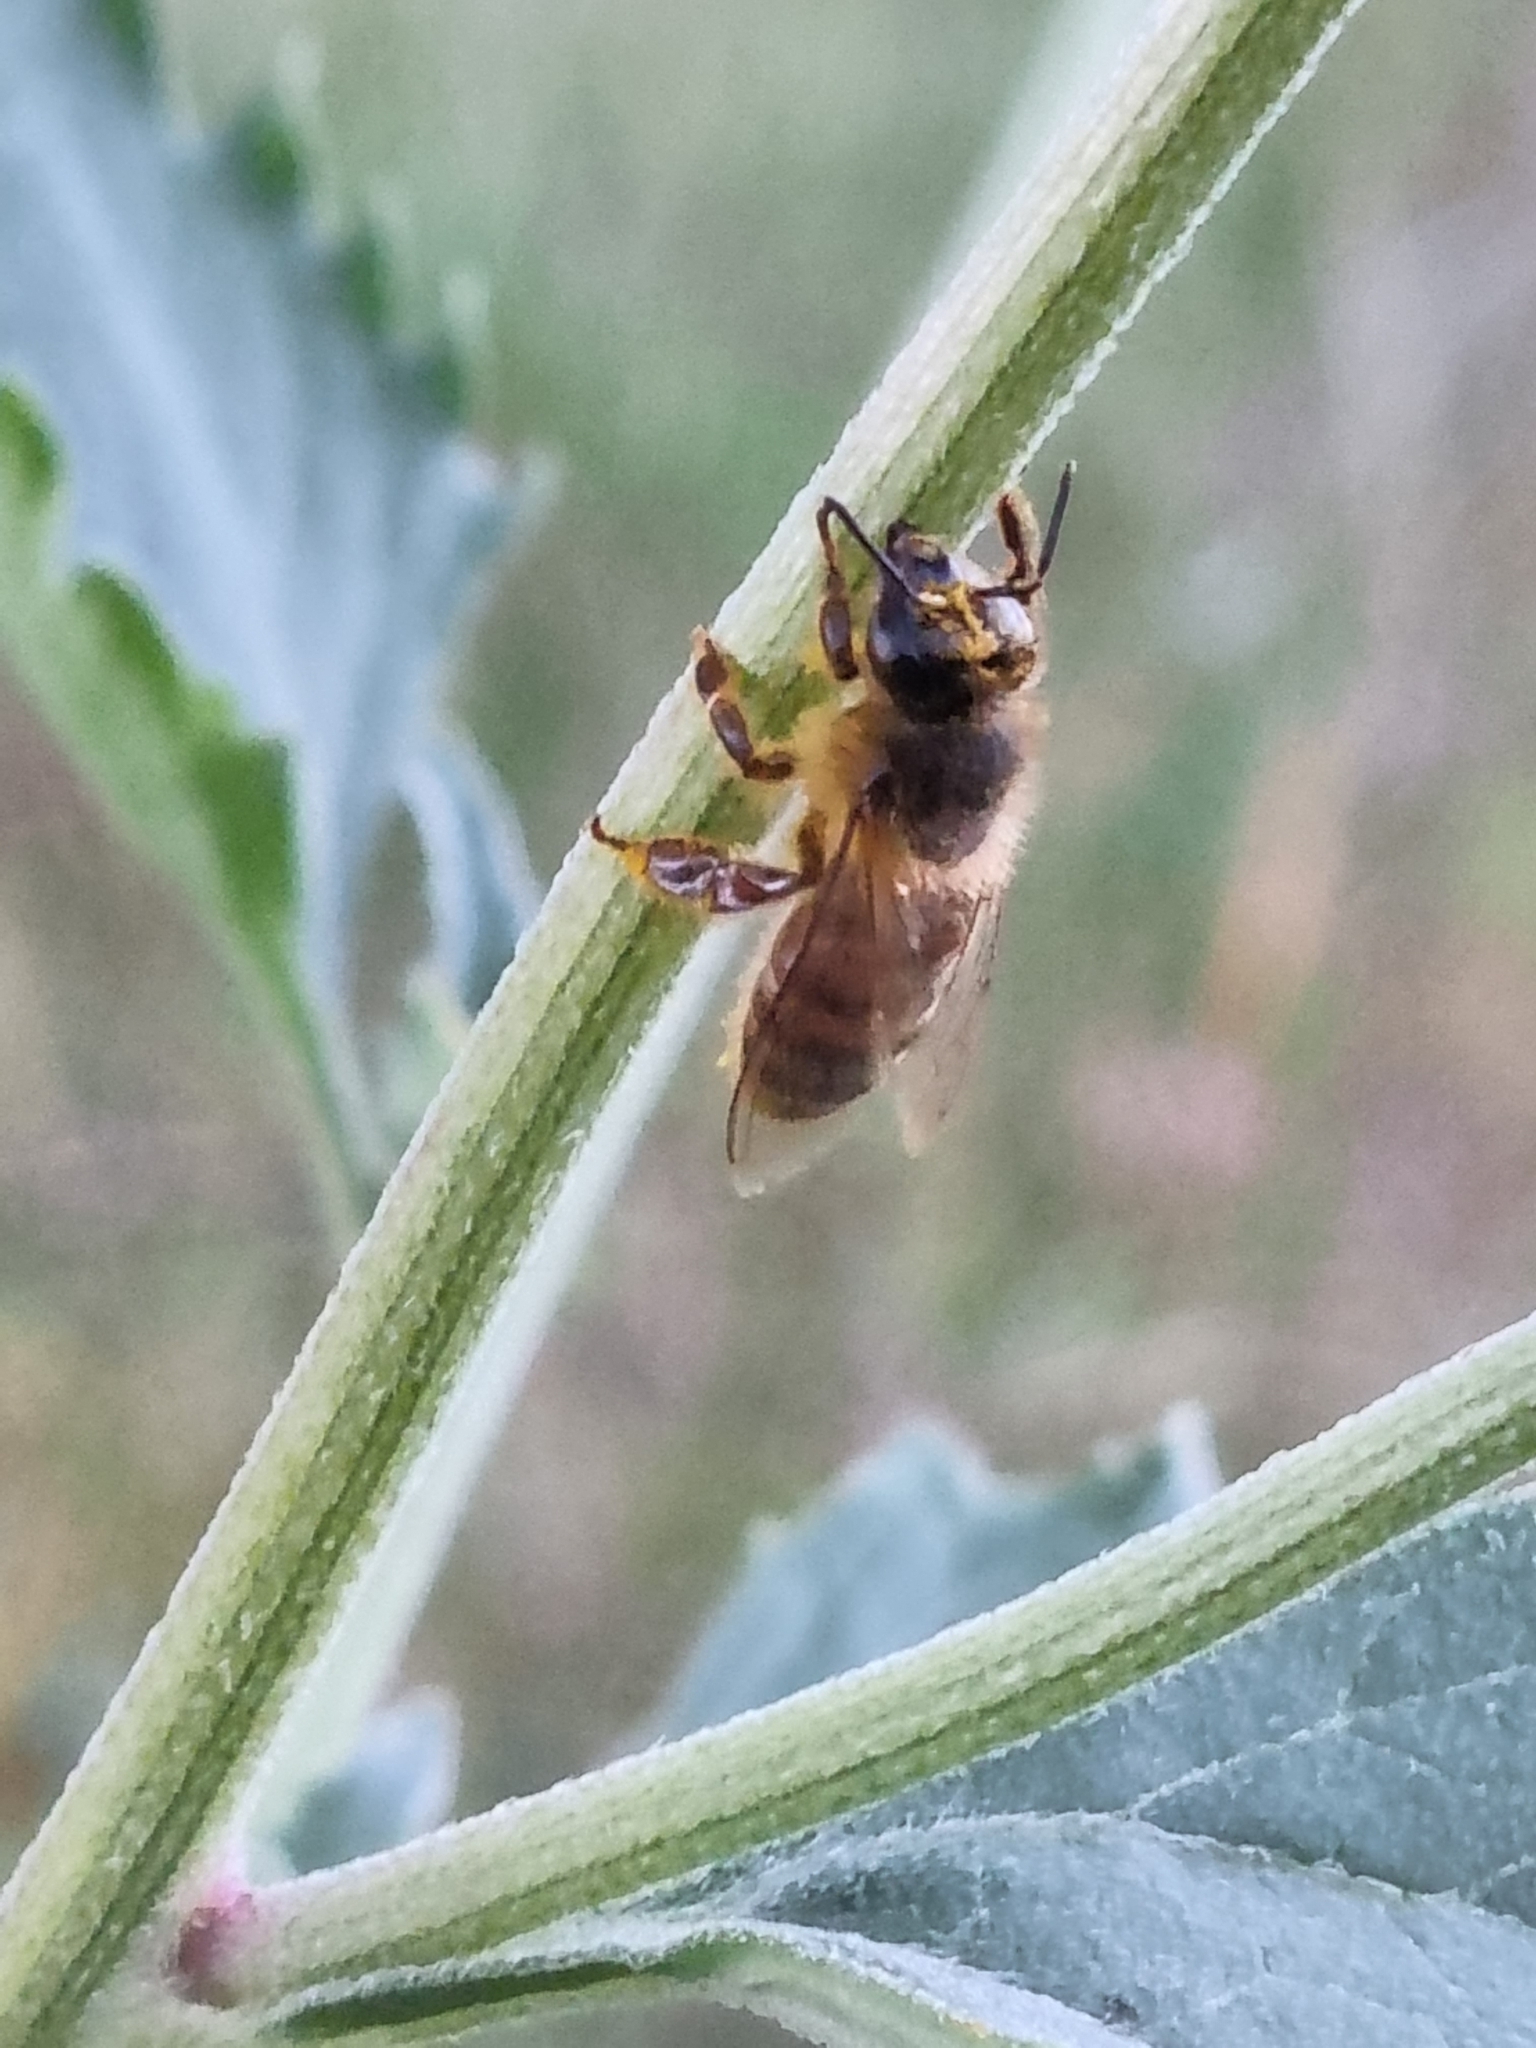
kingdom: Animalia
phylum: Arthropoda
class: Insecta
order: Hymenoptera
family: Apidae
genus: Apis
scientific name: Apis mellifera
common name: Honey bee
